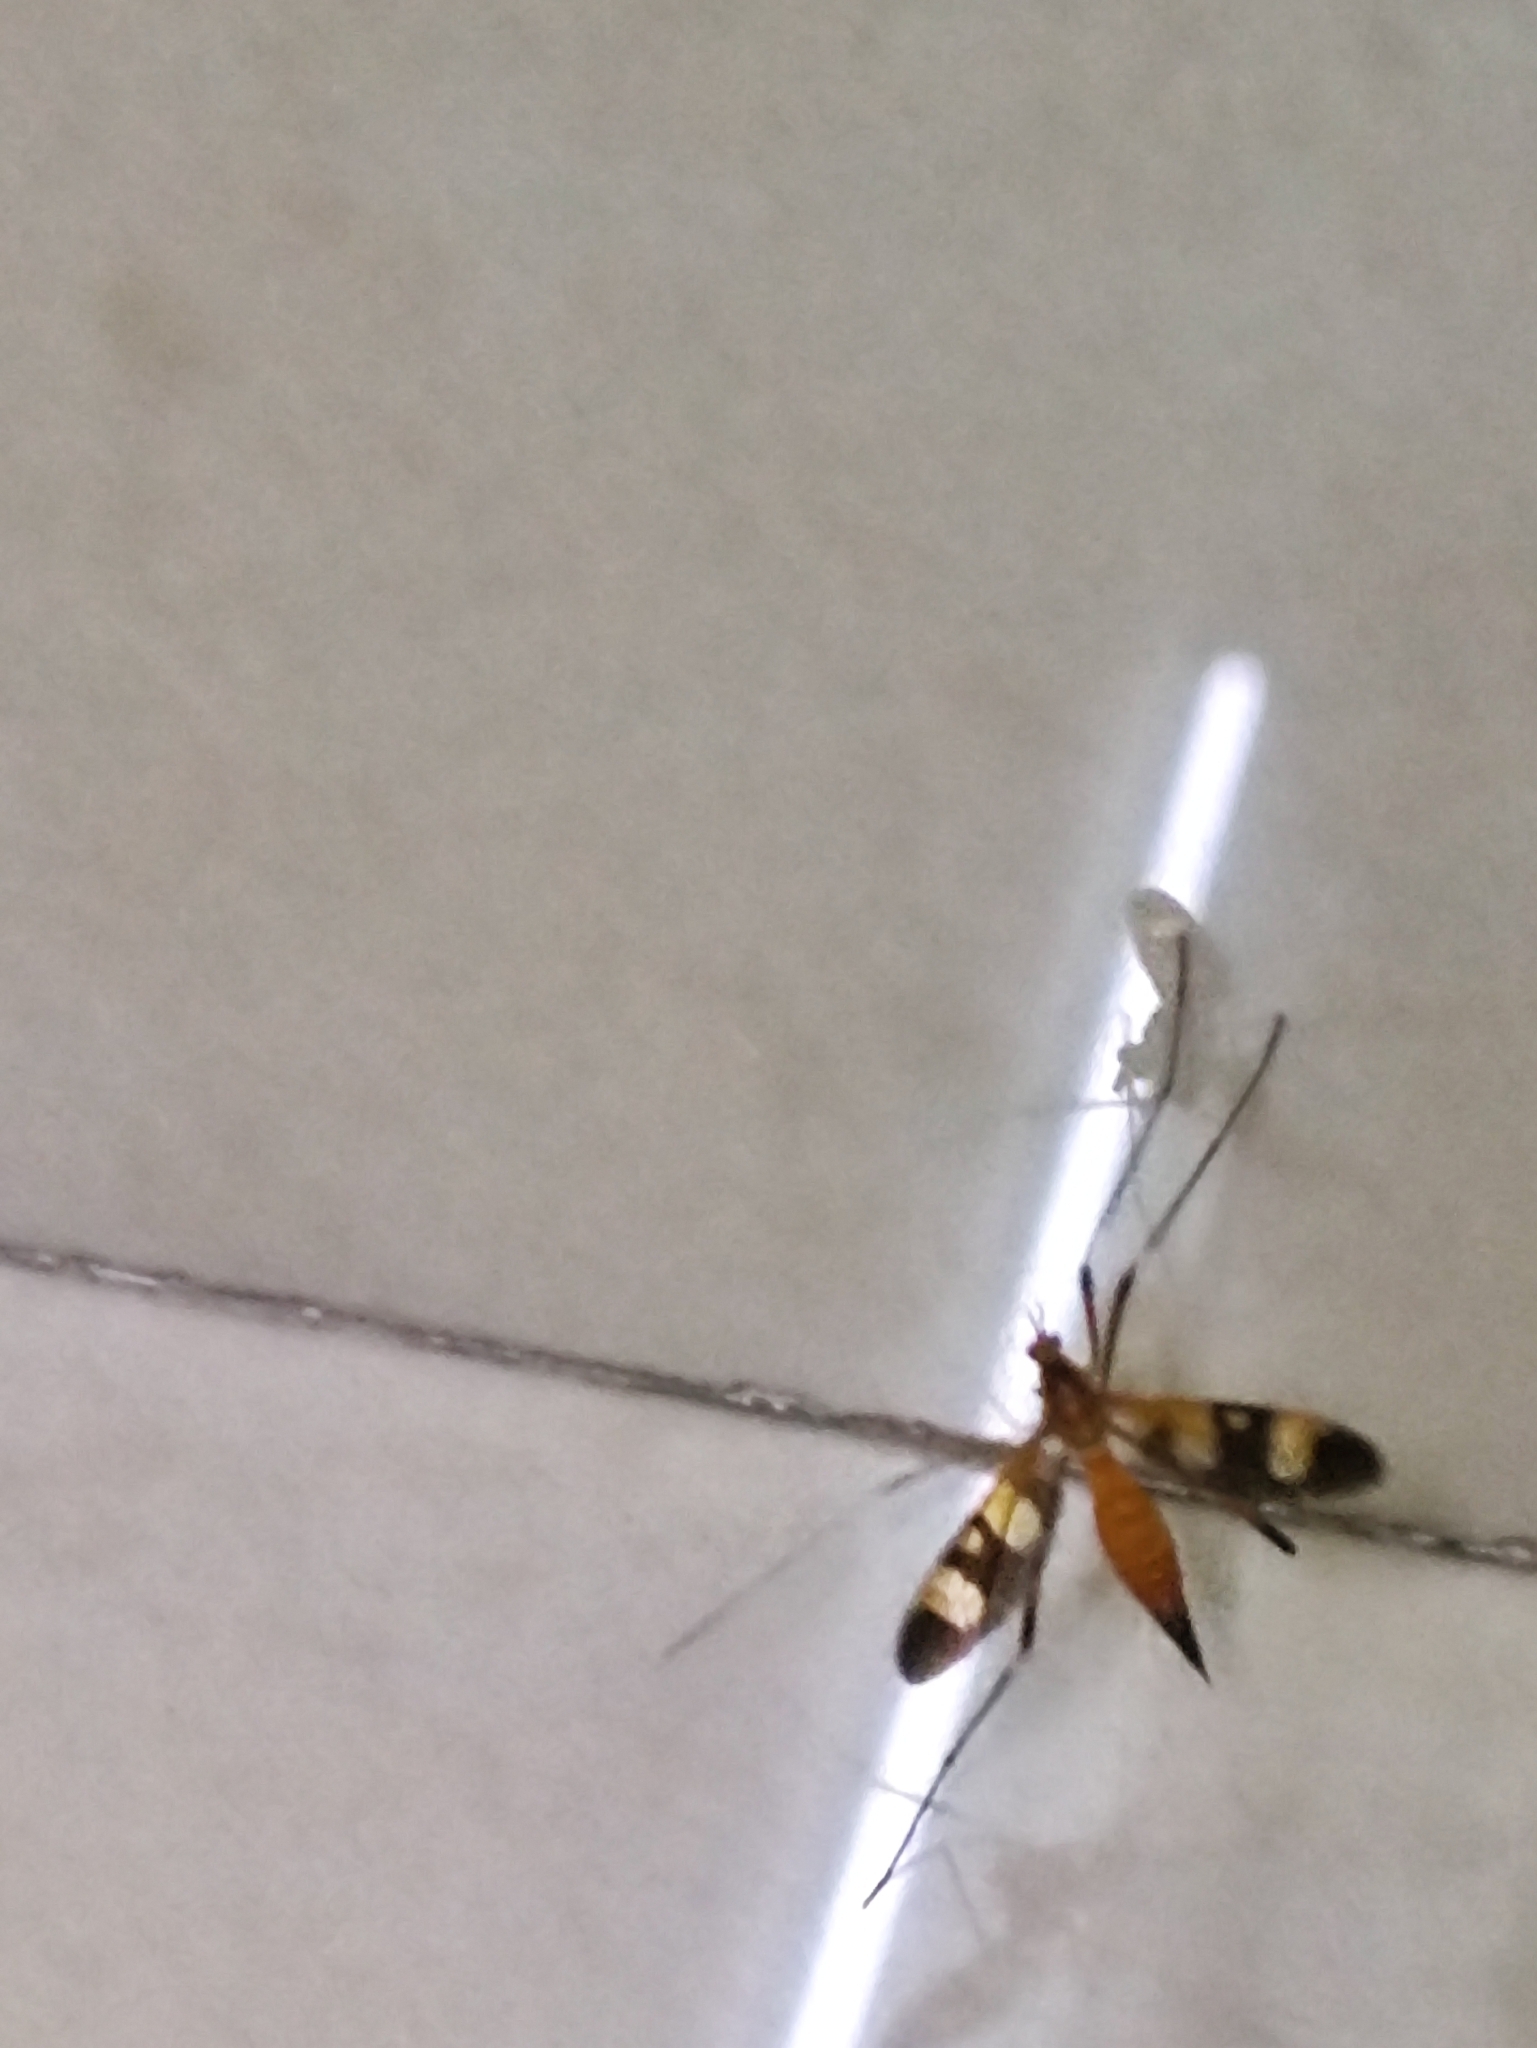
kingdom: Animalia
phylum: Arthropoda
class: Insecta
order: Diptera
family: Tipulidae
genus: Pselliophora
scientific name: Pselliophora laeta
